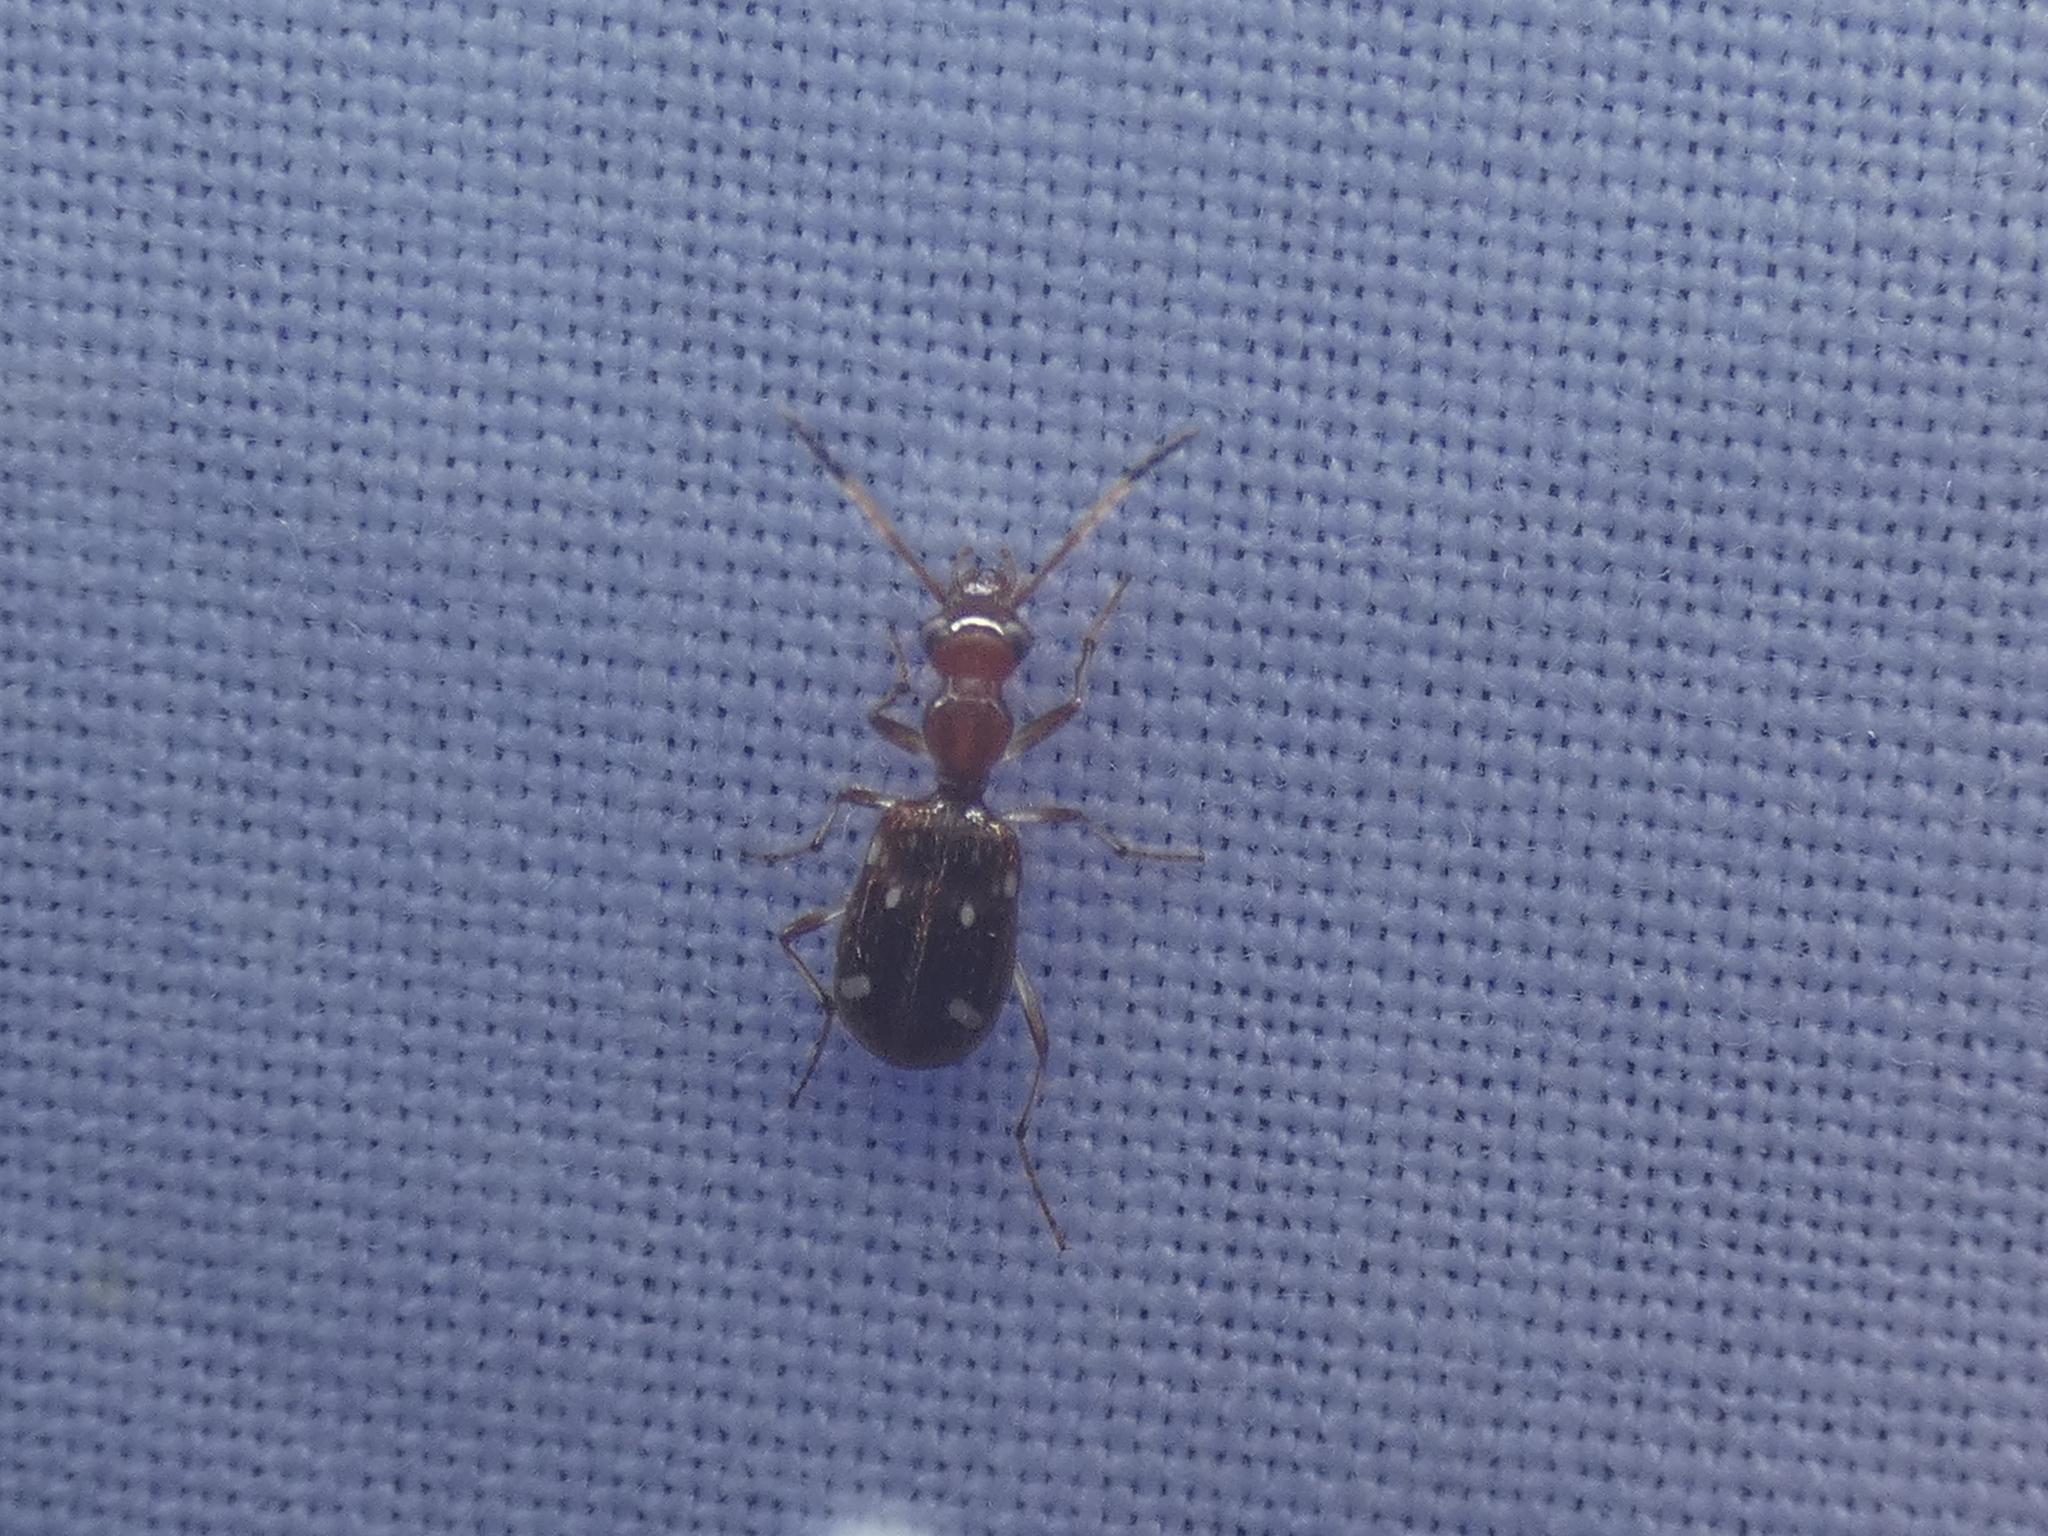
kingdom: Animalia
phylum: Arthropoda
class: Insecta
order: Coleoptera
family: Carabidae
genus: Ega
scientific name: Ega sallei
